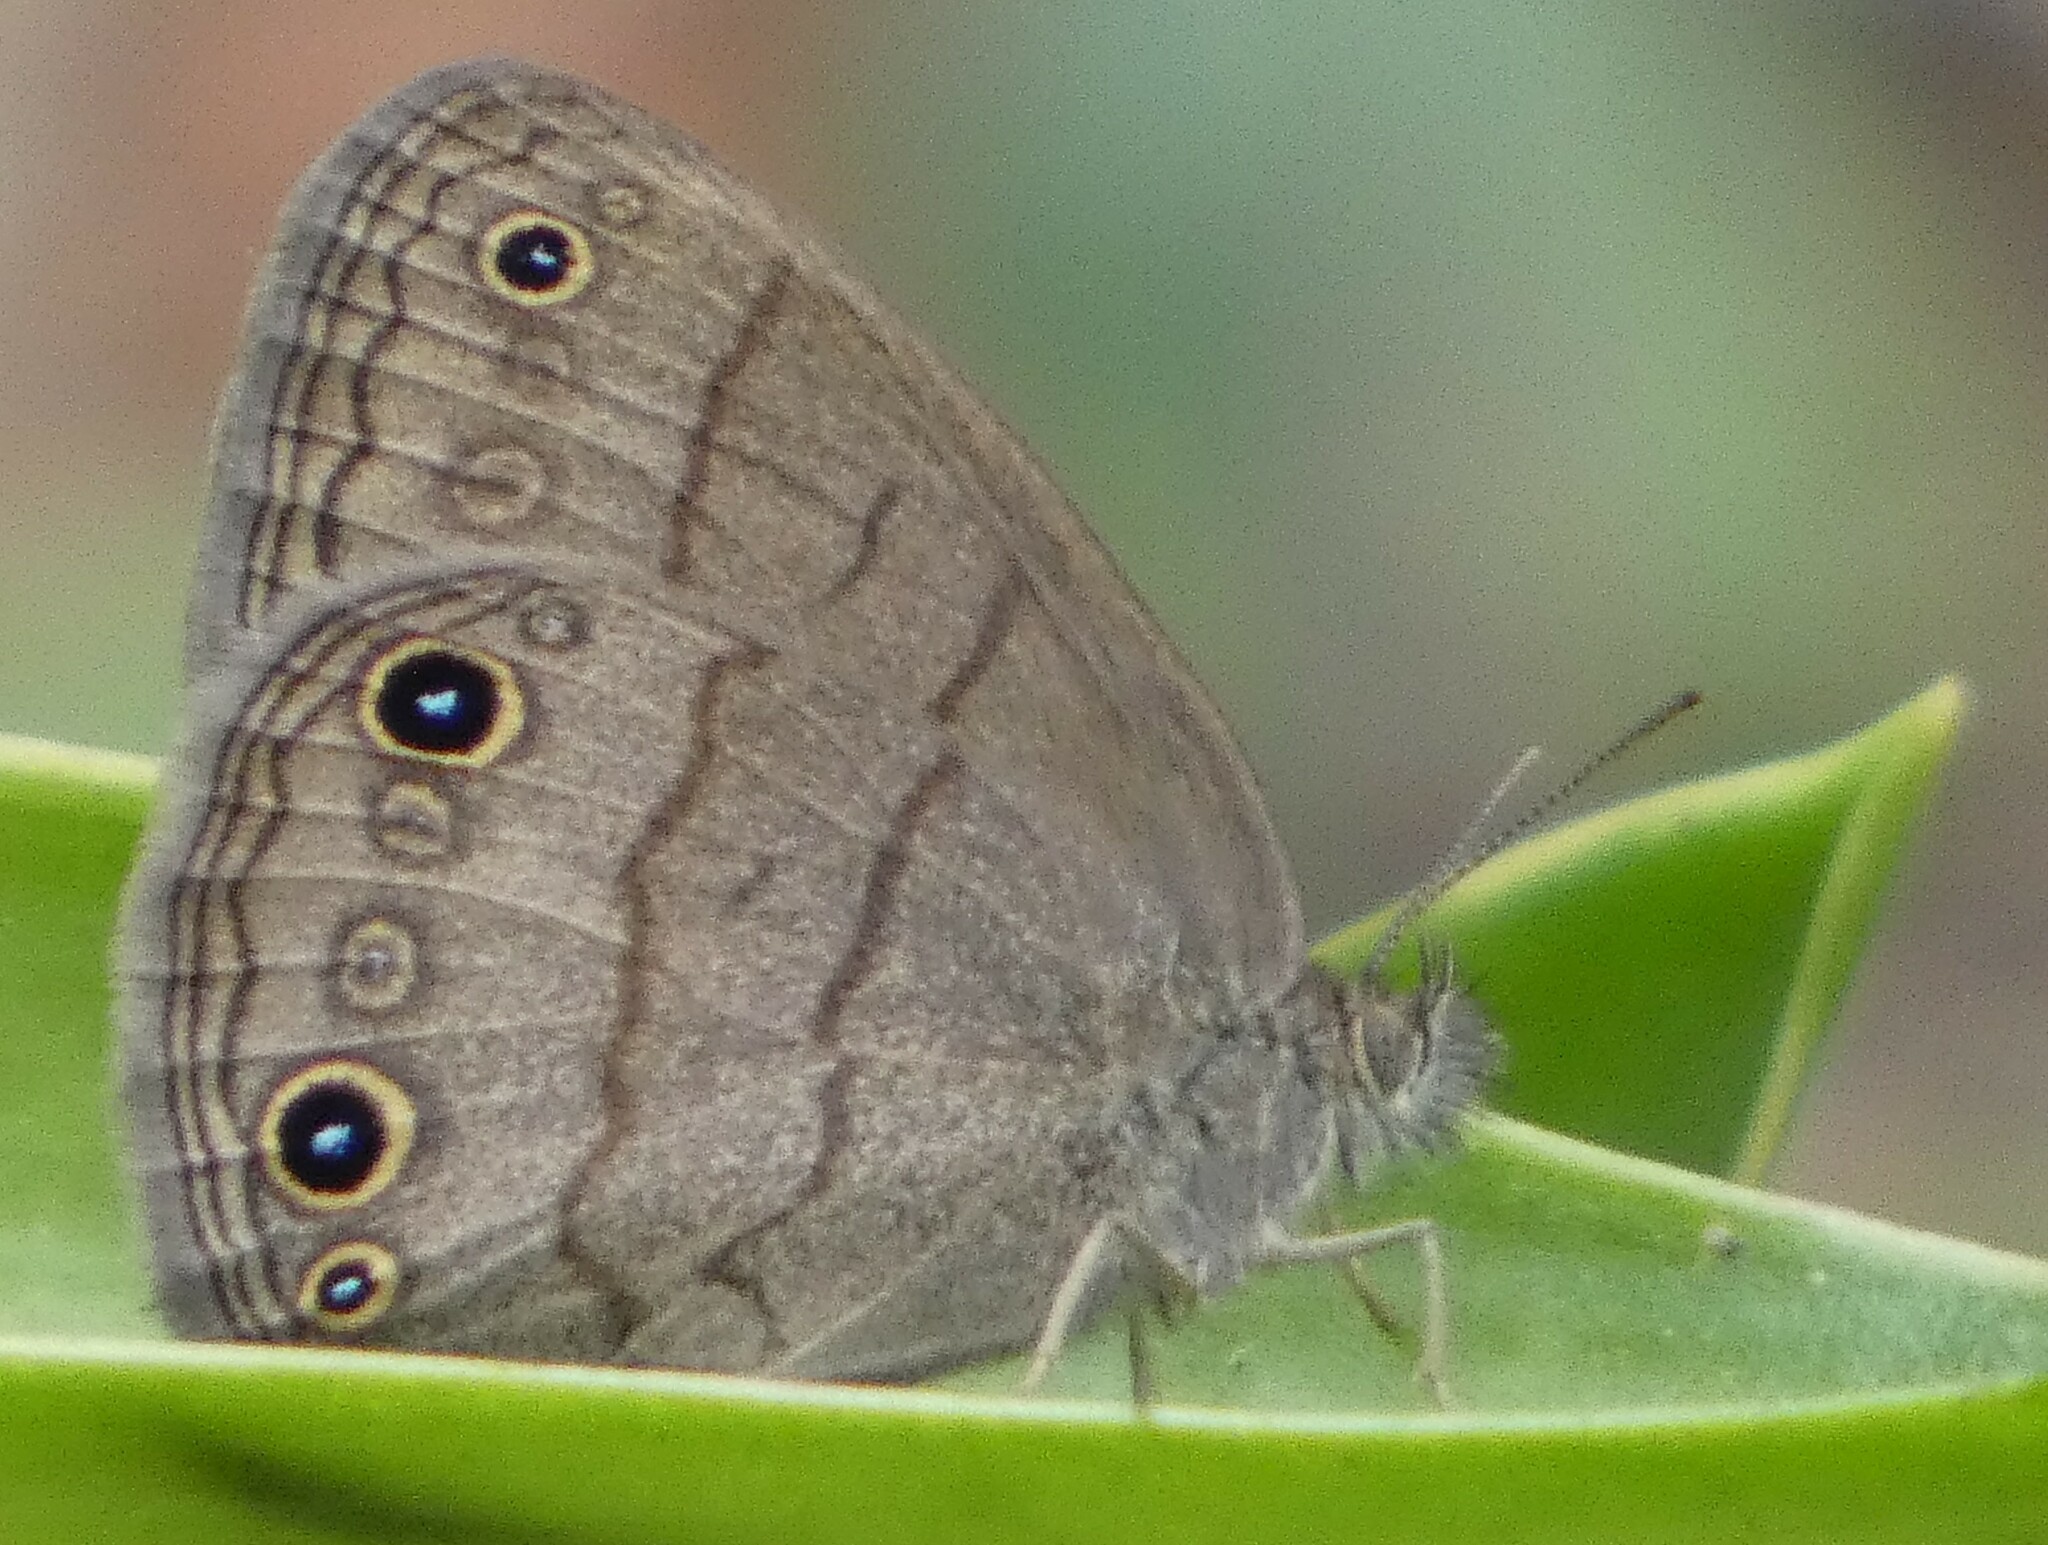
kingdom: Animalia
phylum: Arthropoda
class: Insecta
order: Lepidoptera
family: Nymphalidae
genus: Hermeuptychia
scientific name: Hermeuptychia hermes
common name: Hermes satyr
